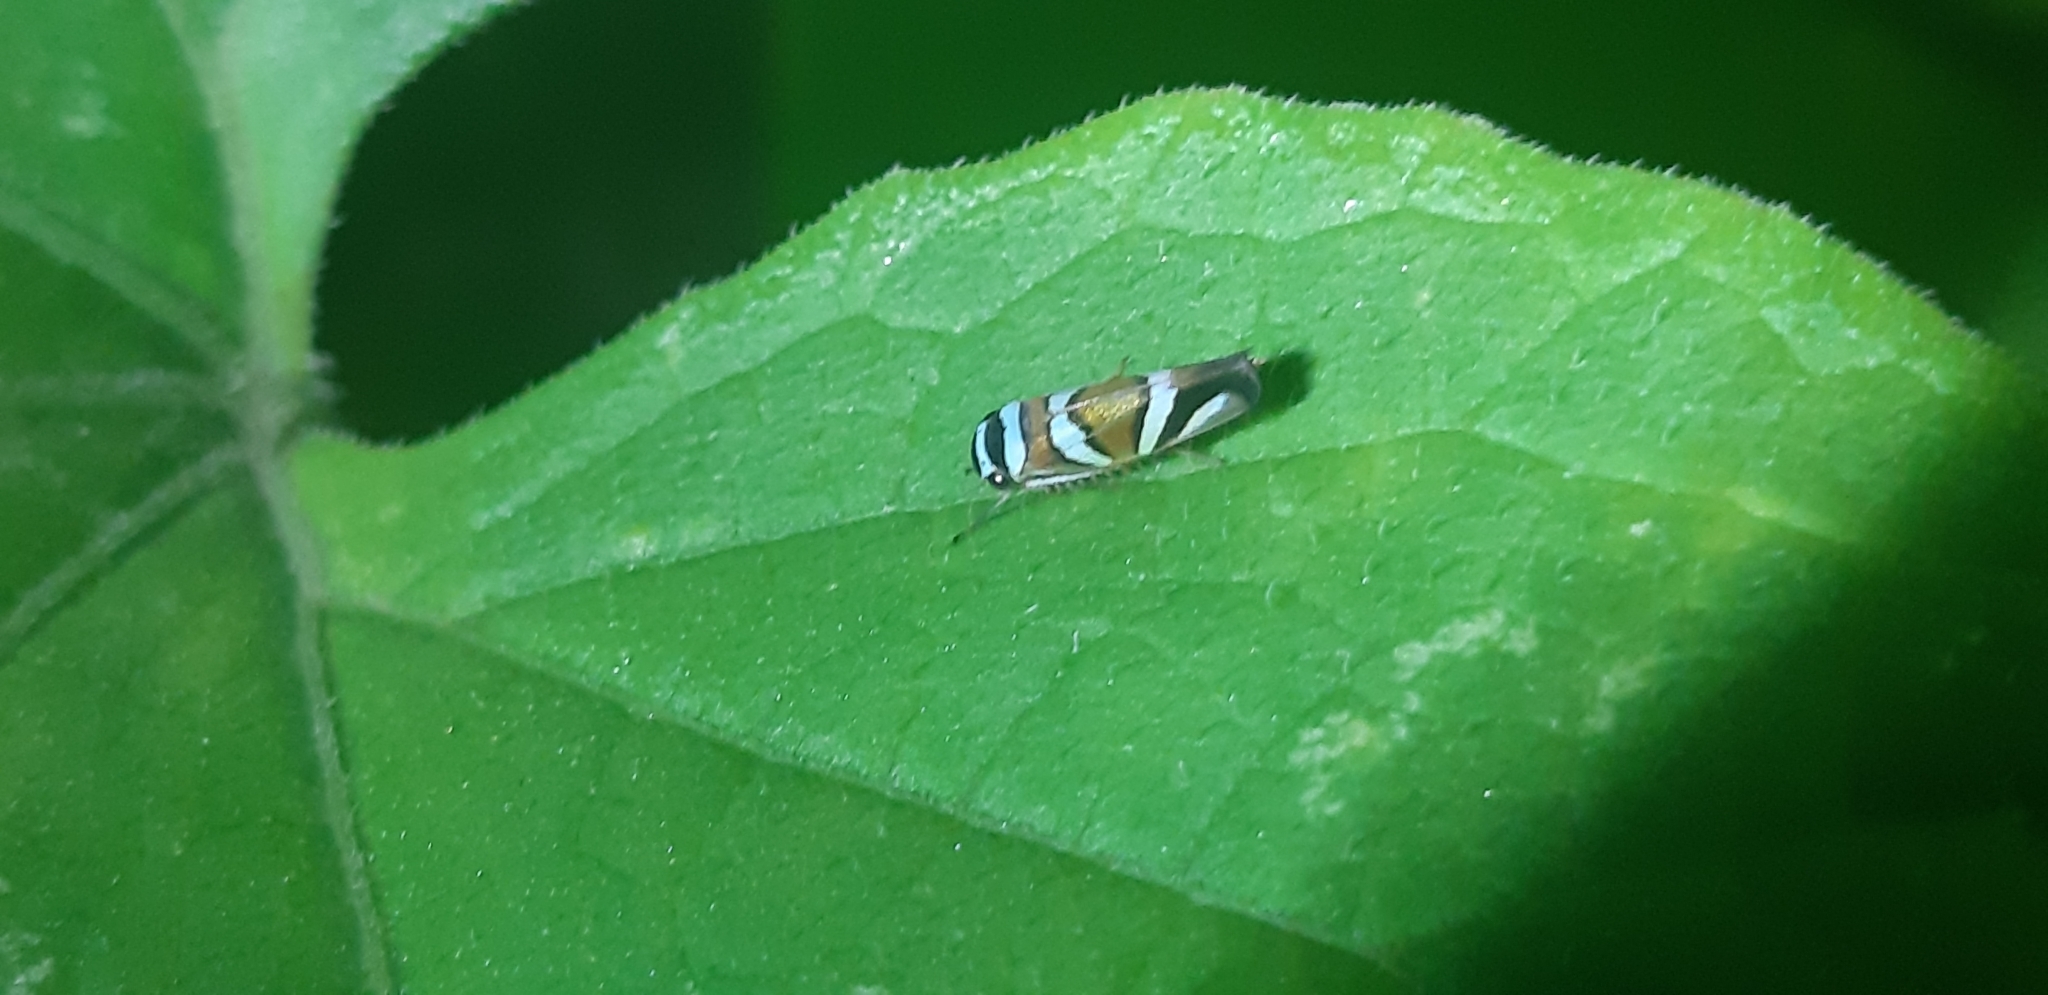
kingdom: Animalia
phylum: Arthropoda
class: Insecta
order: Hemiptera
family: Cicadellidae
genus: Macugonalia
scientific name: Macugonalia moesta
